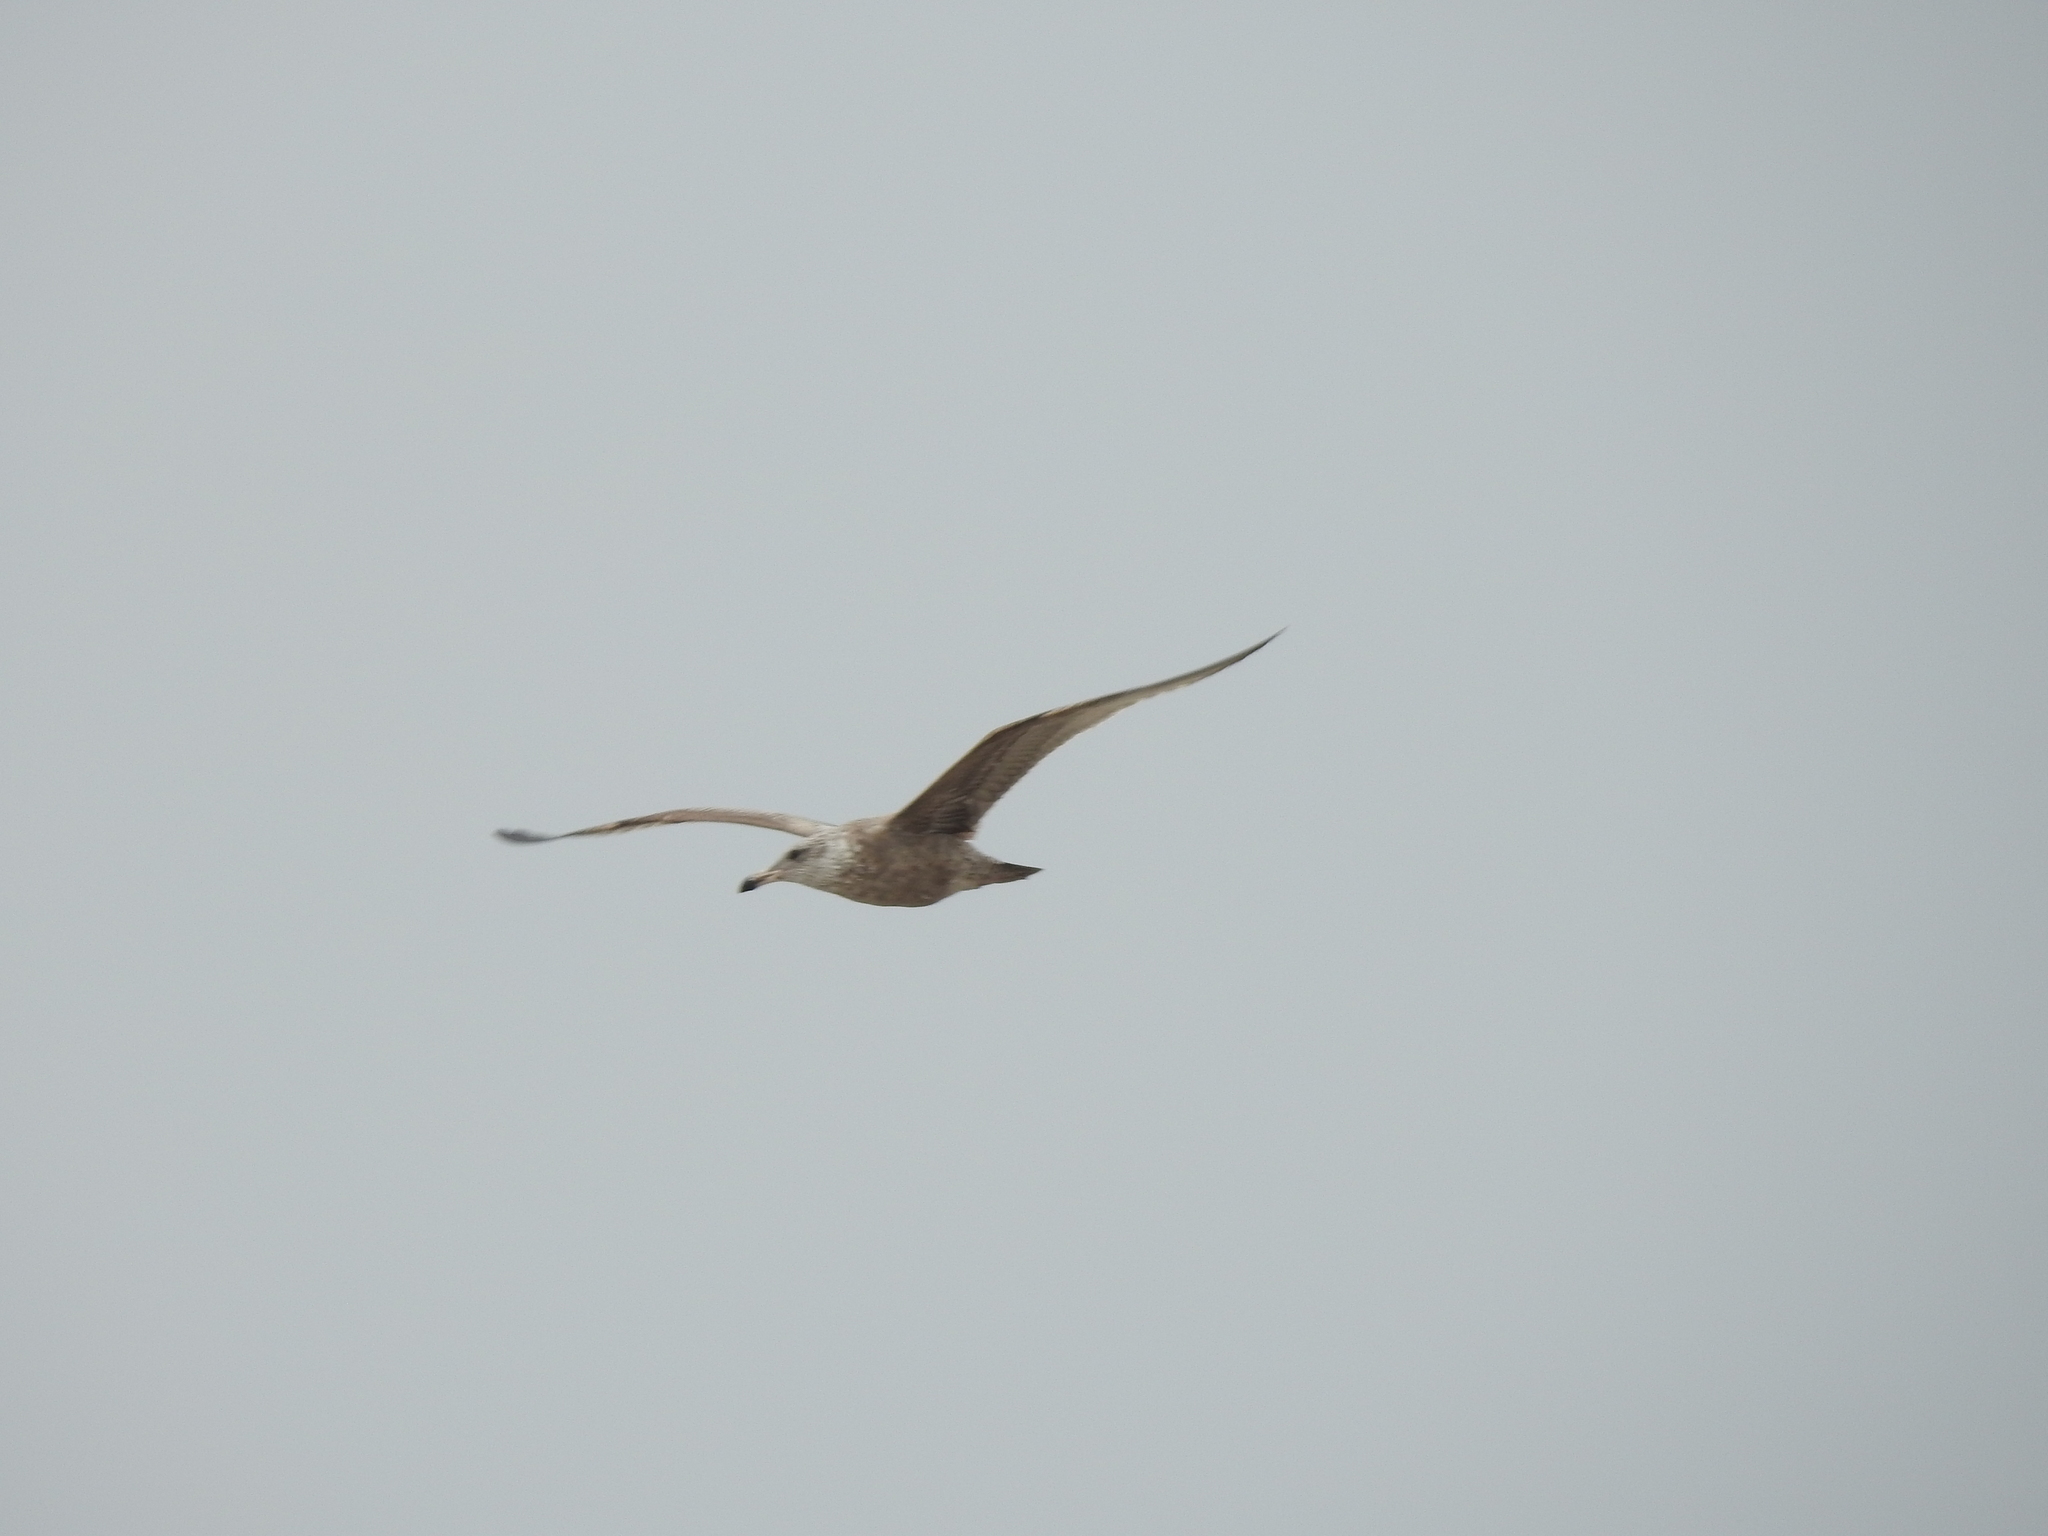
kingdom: Animalia
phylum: Chordata
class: Aves
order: Charadriiformes
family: Laridae
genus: Larus
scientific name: Larus argentatus
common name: Herring gull
